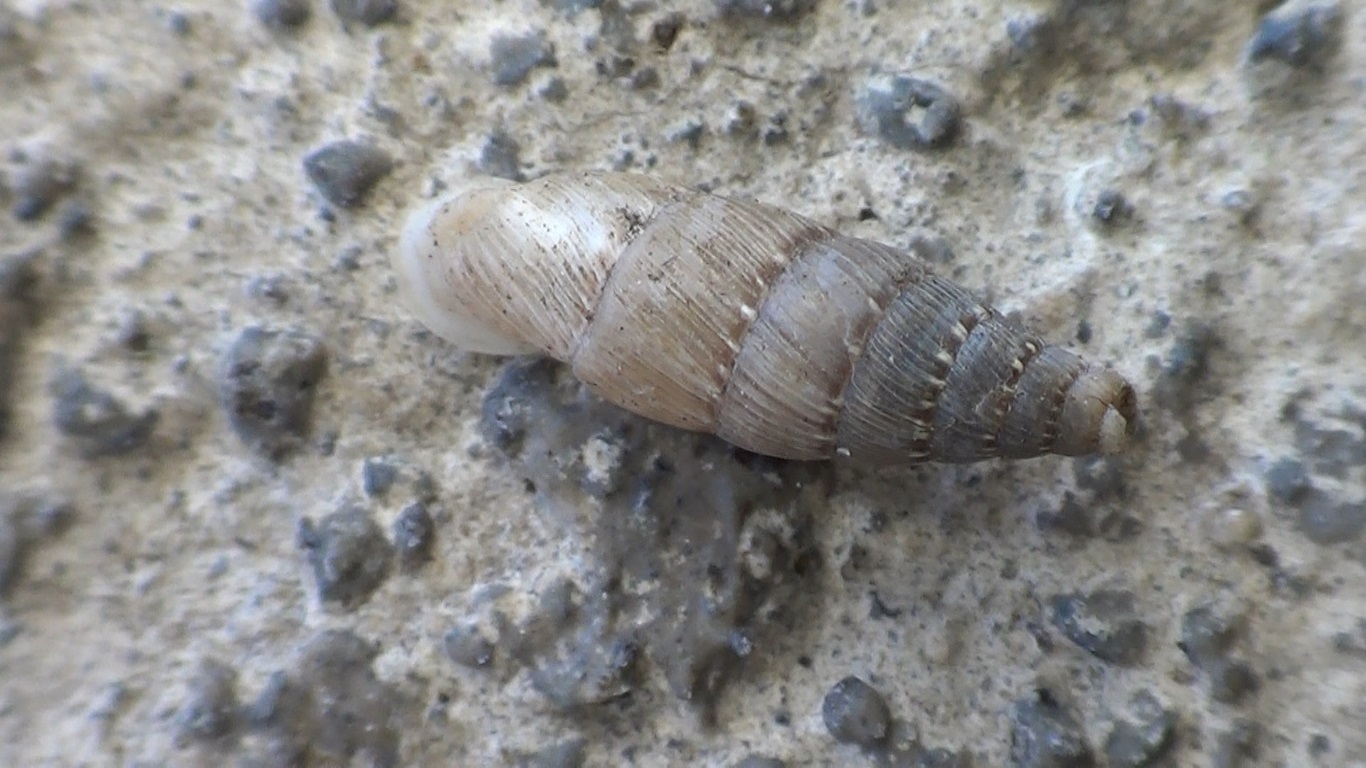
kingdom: Animalia
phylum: Mollusca
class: Gastropoda
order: Stylommatophora
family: Clausiliidae
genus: Papillifera
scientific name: Papillifera papillaris
